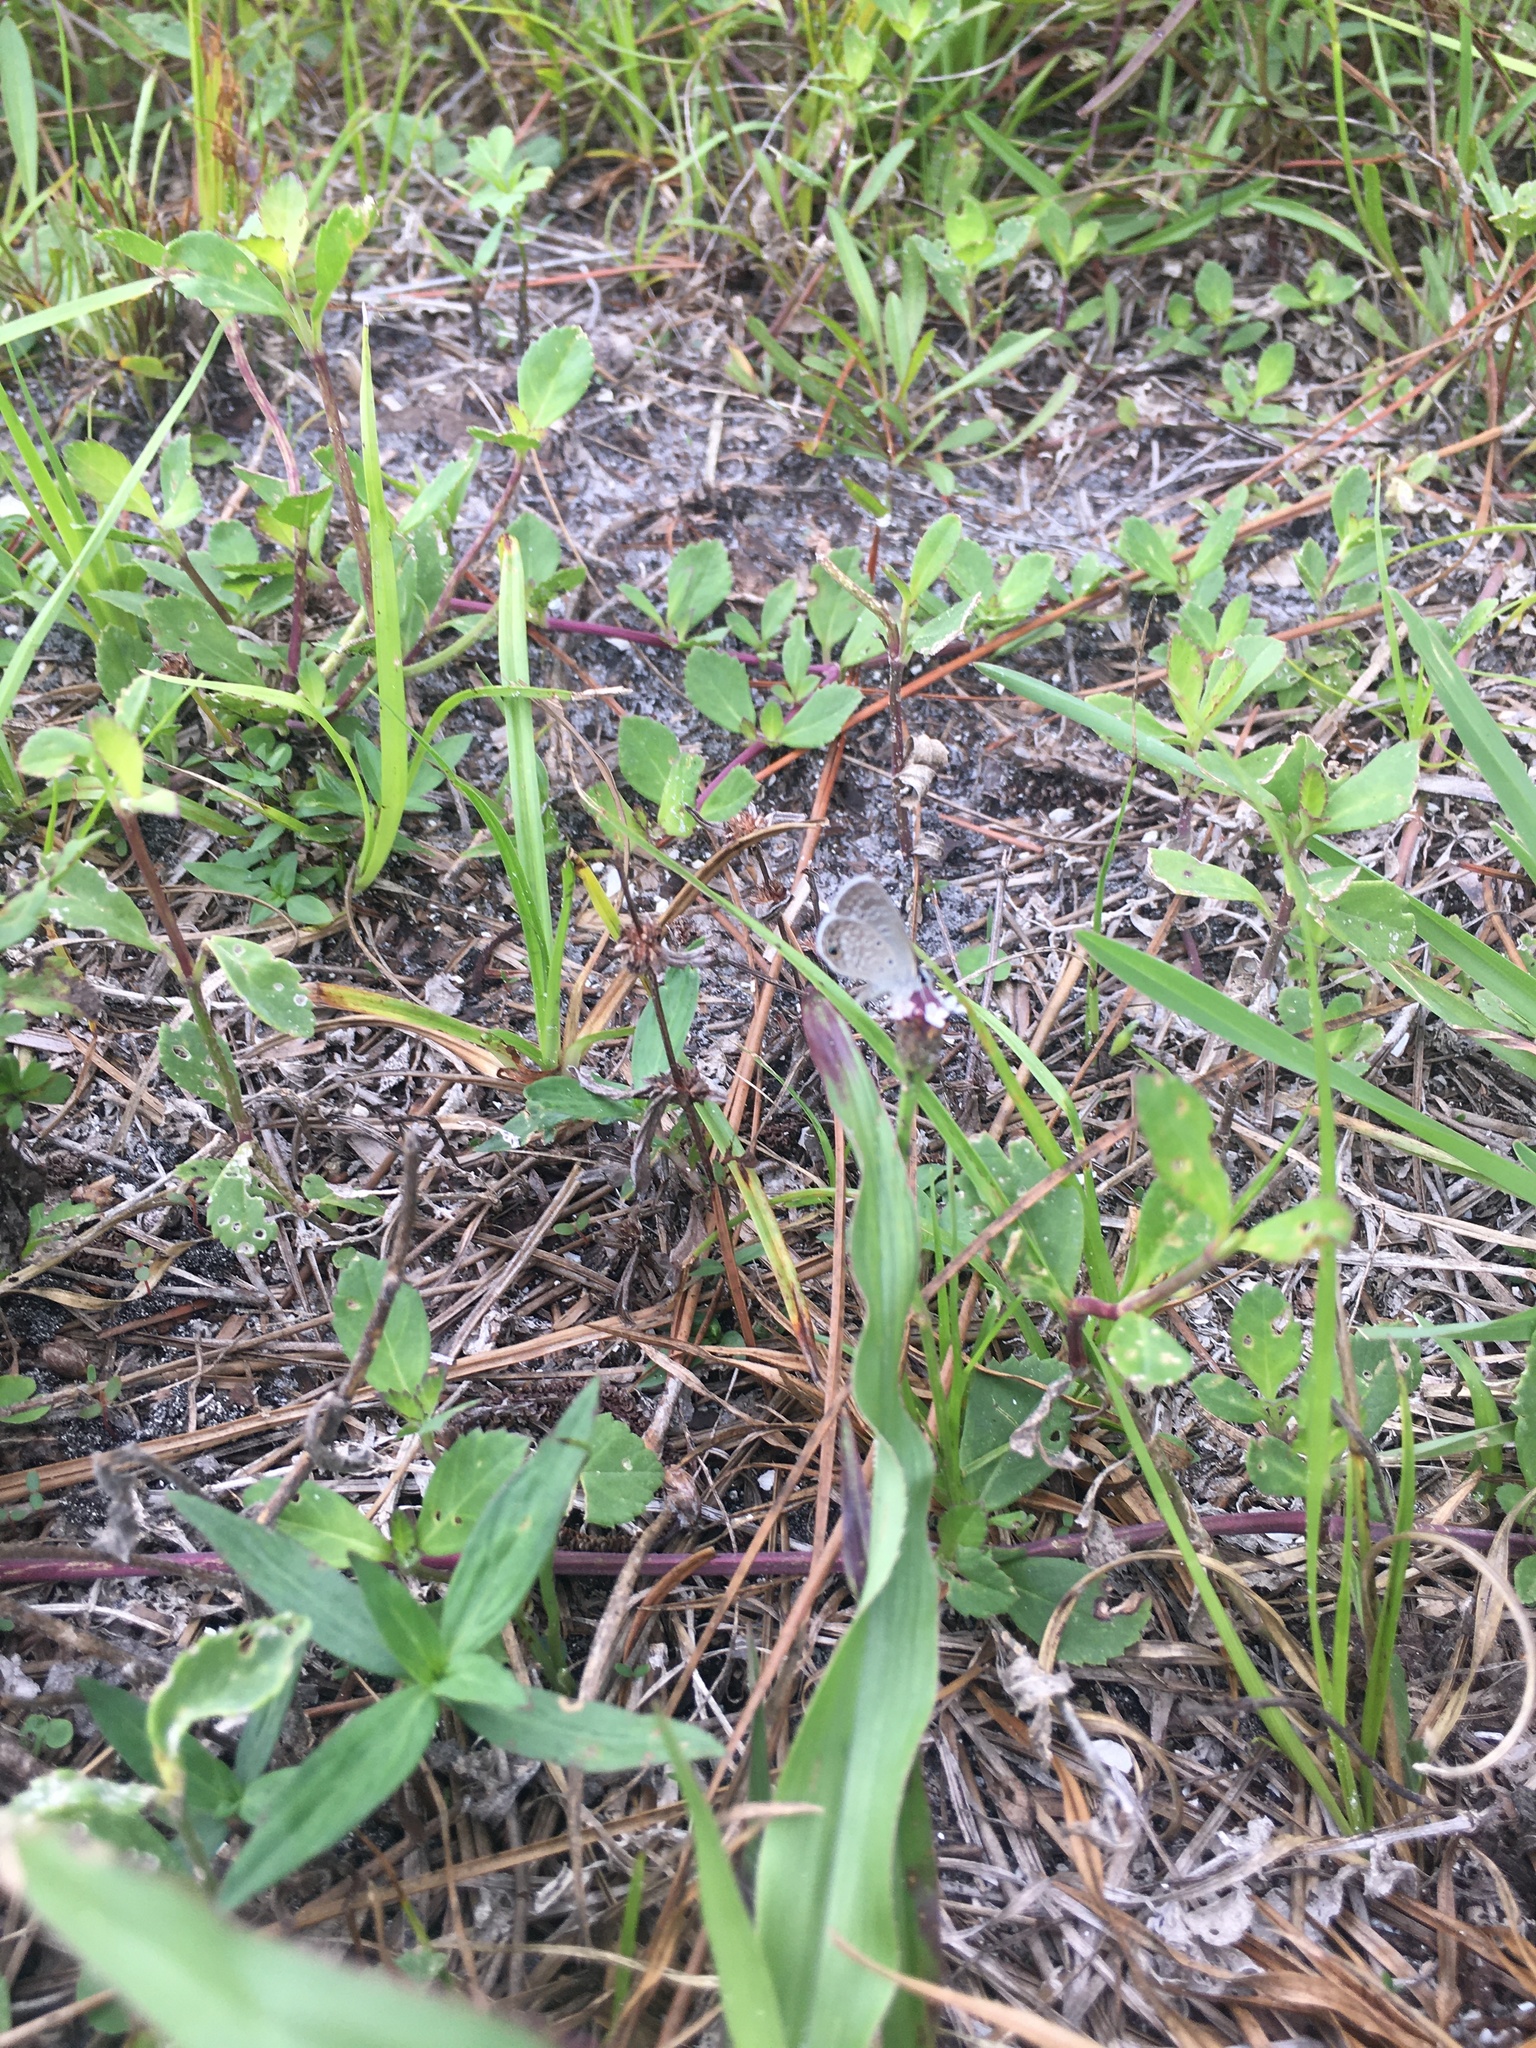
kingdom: Animalia
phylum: Arthropoda
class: Insecta
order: Lepidoptera
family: Lycaenidae
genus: Hemiargus
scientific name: Hemiargus ceraunus
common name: Ceraunus blue
